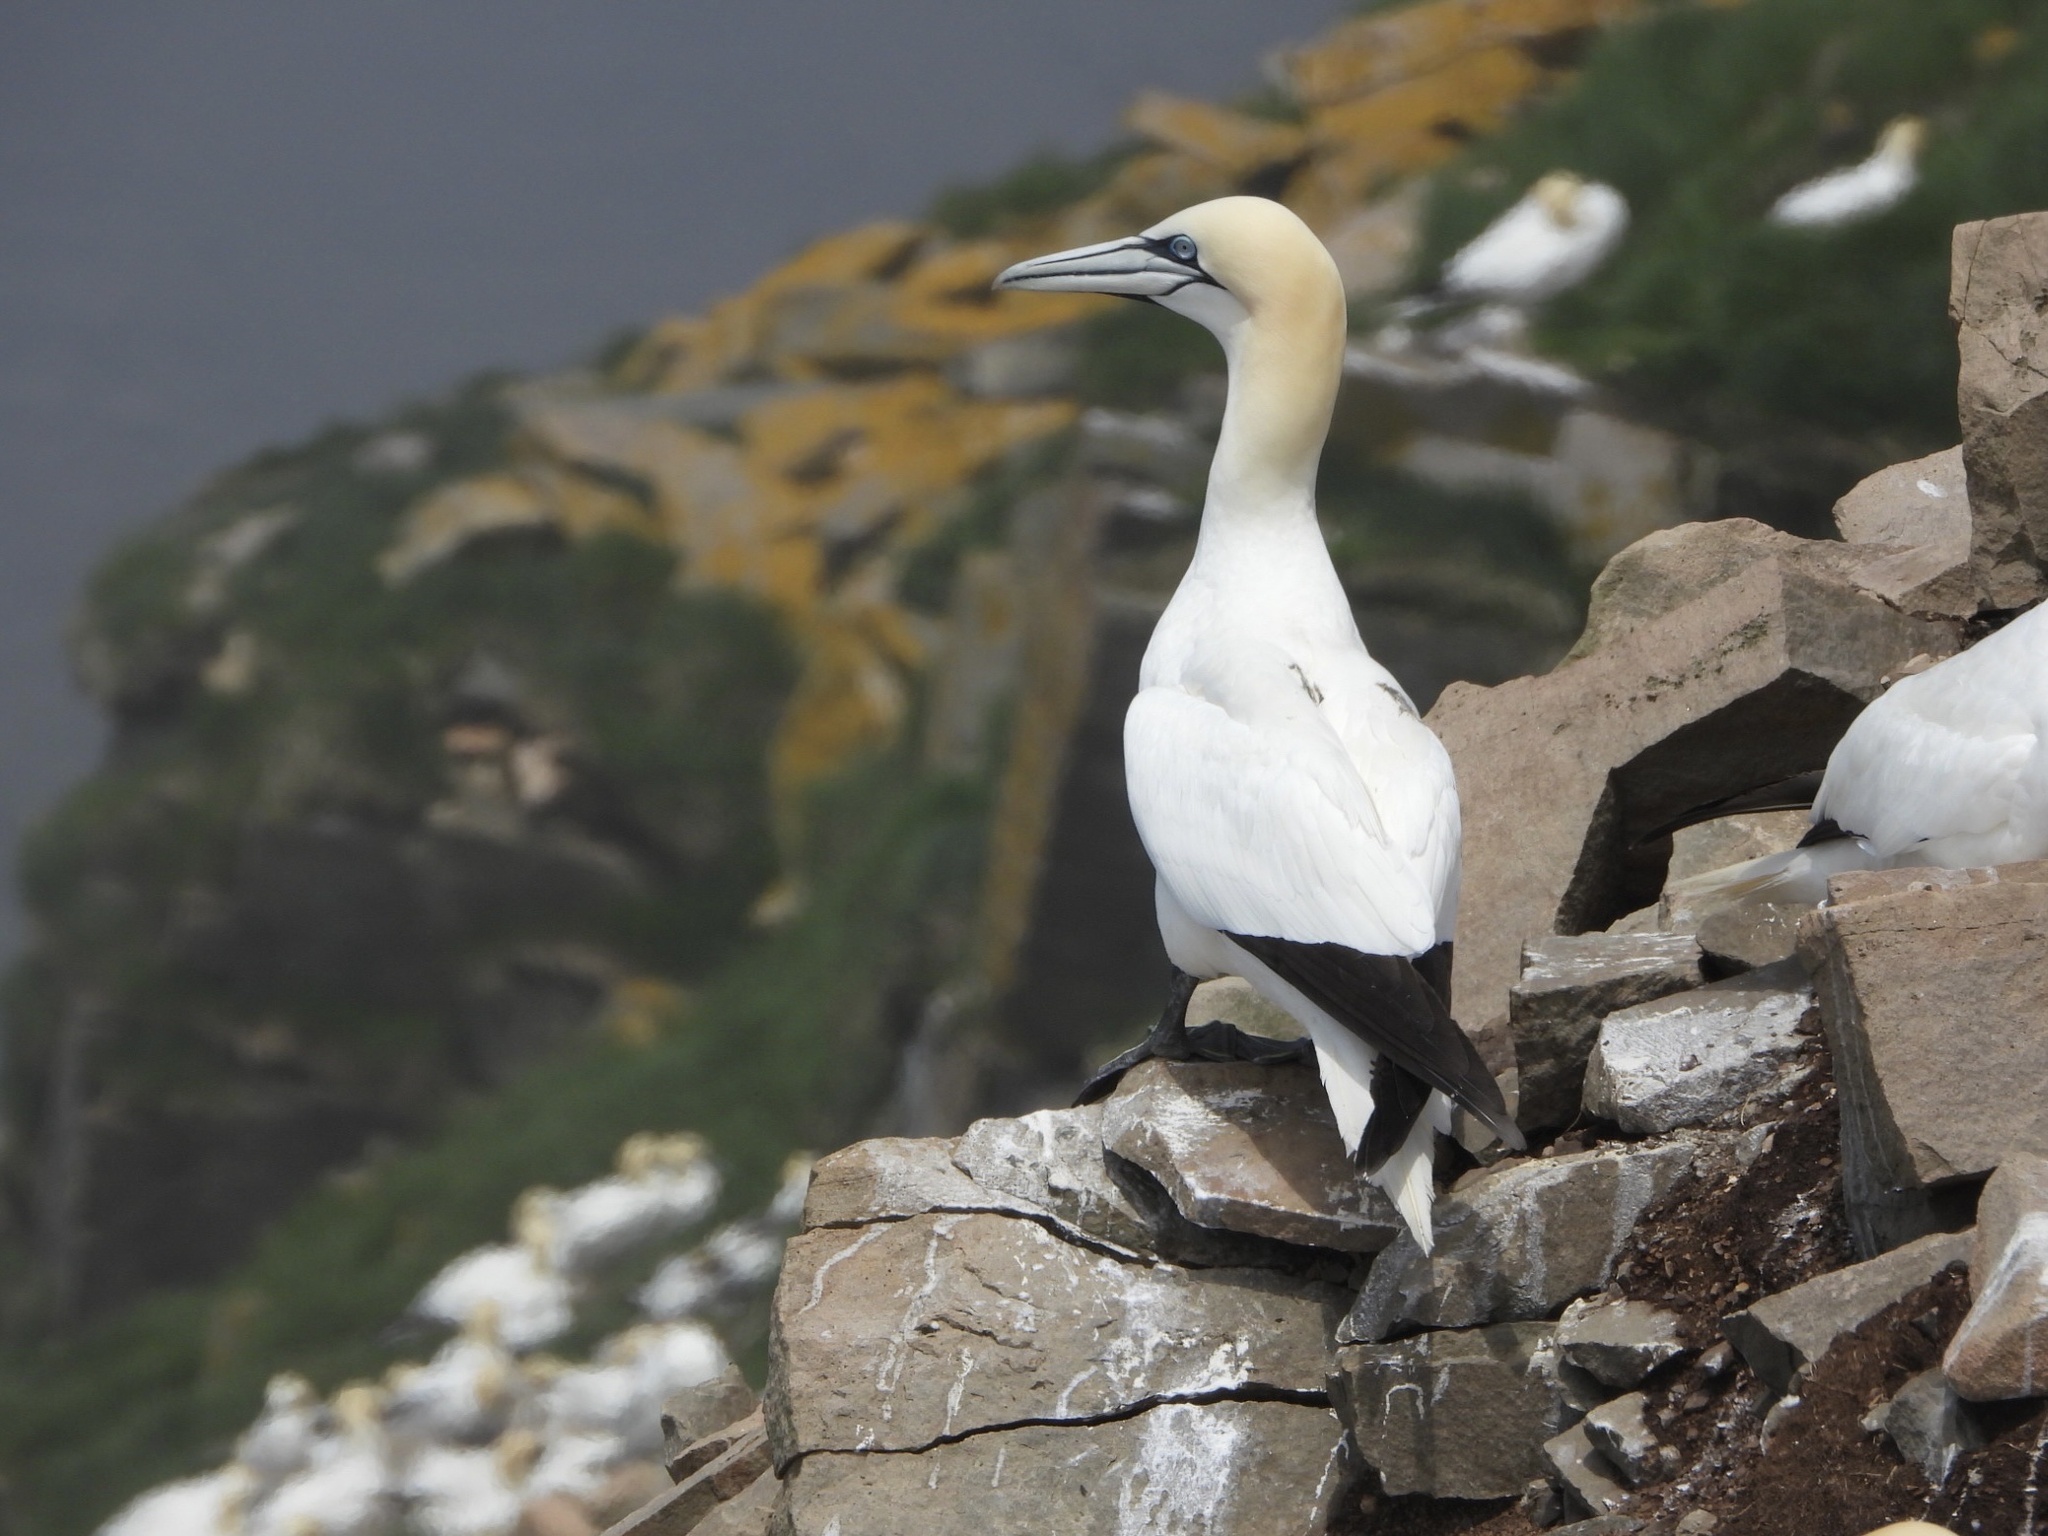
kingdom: Animalia
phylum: Chordata
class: Aves
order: Suliformes
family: Sulidae
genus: Morus
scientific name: Morus bassanus
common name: Northern gannet
